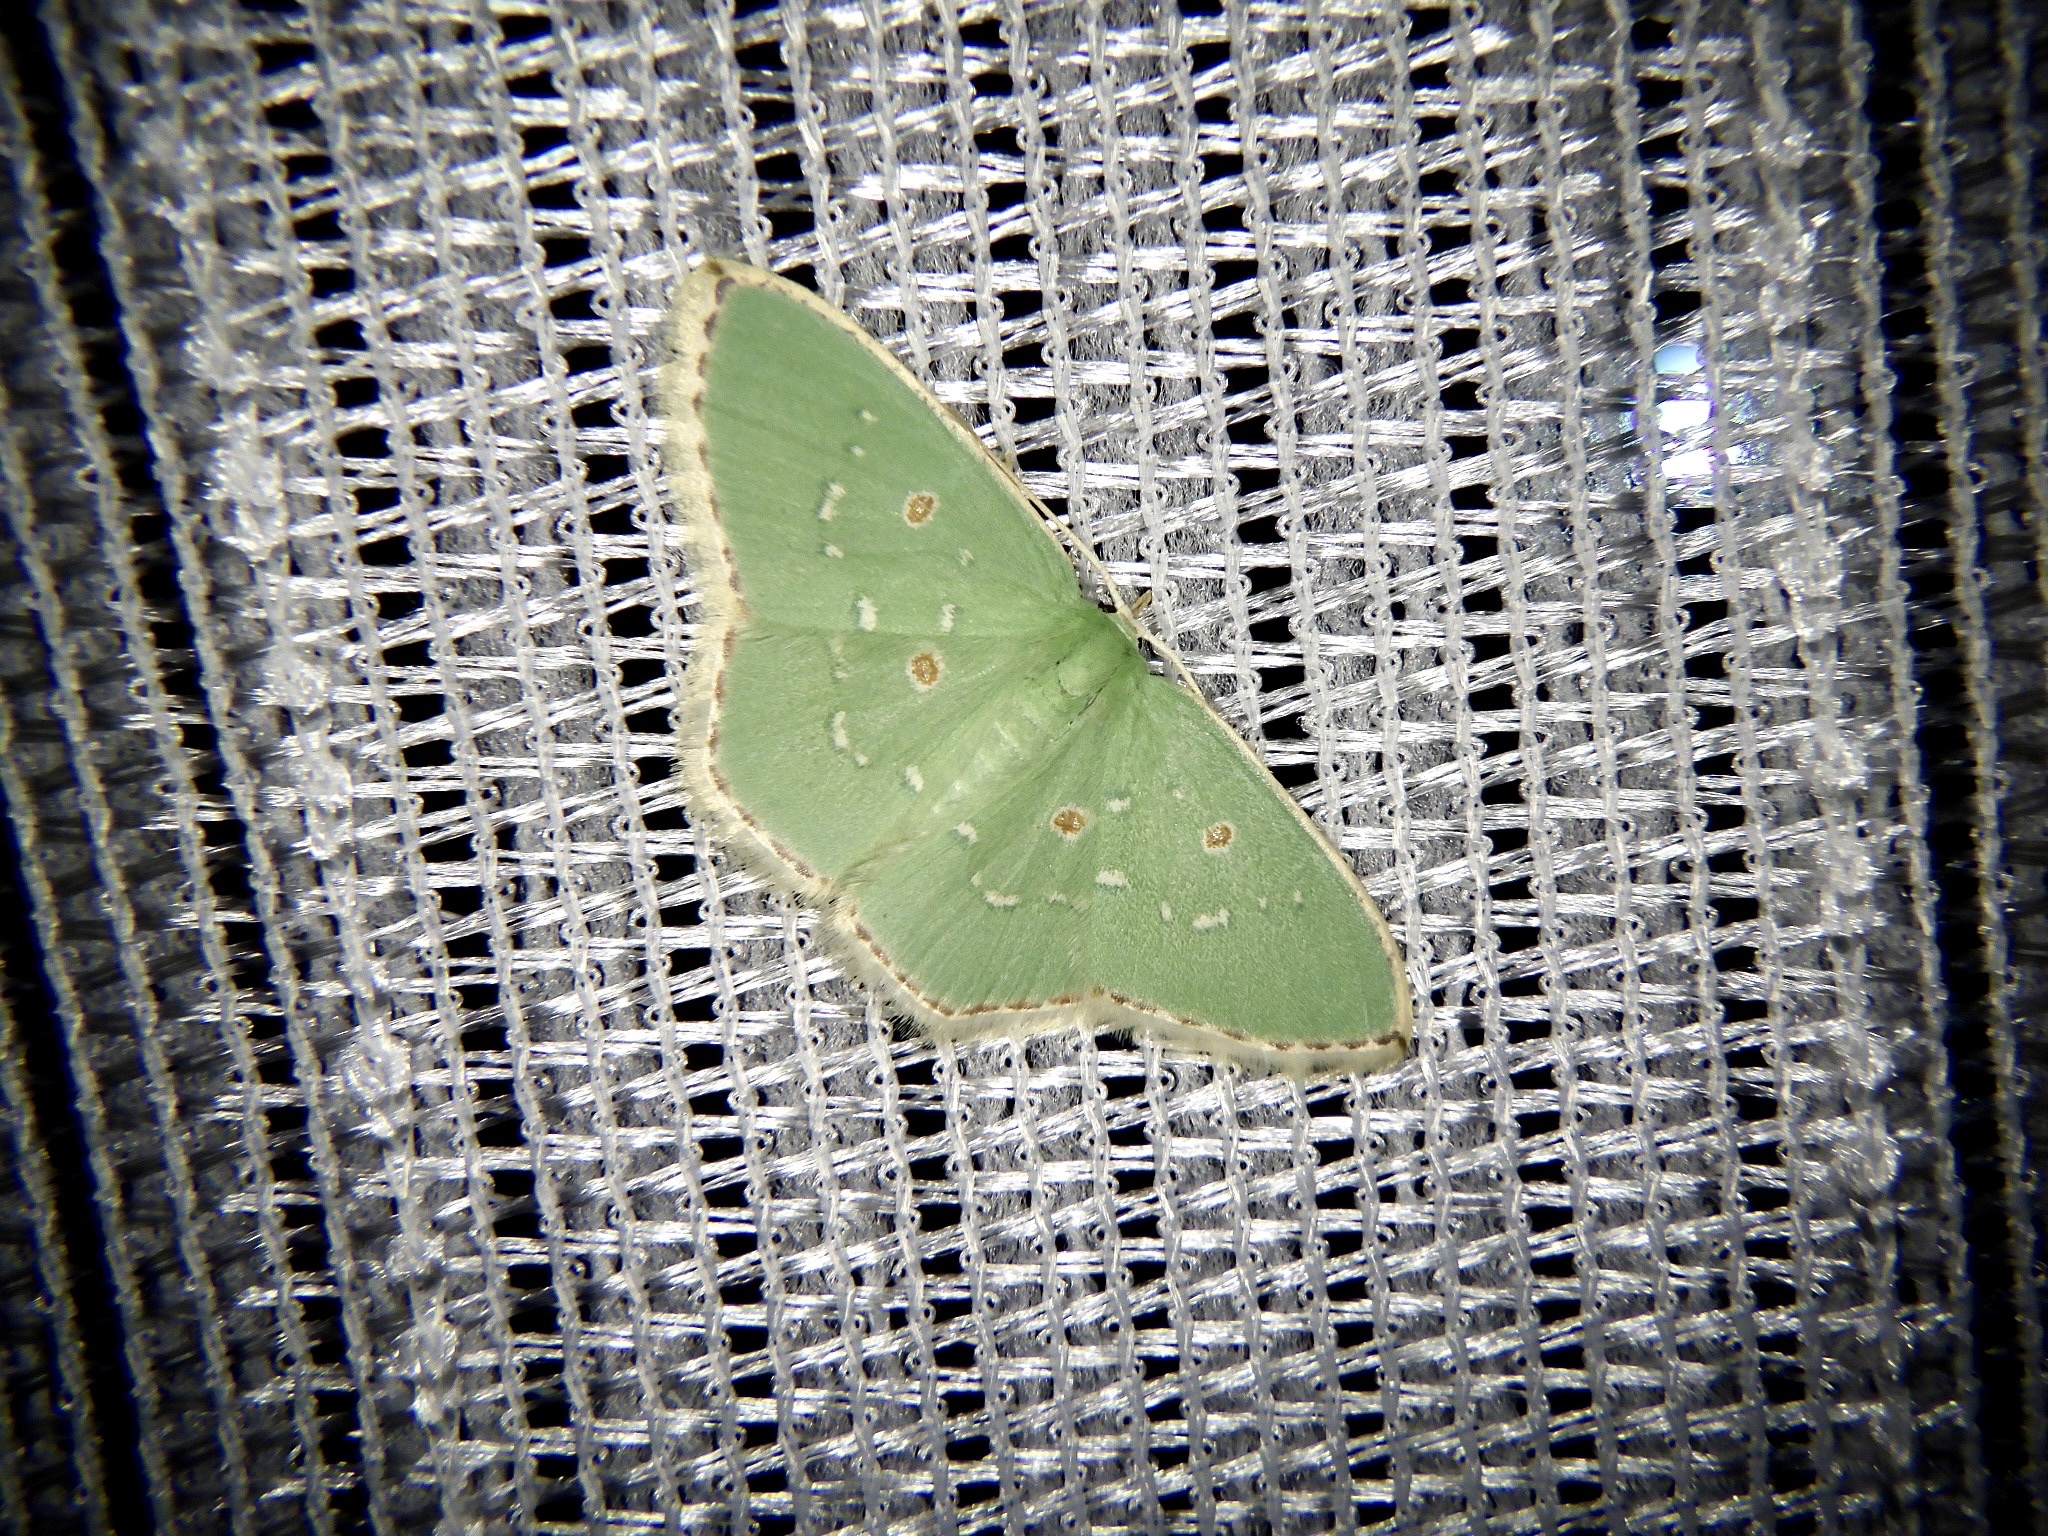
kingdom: Animalia
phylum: Arthropoda
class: Insecta
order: Lepidoptera
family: Geometridae
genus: Comostola
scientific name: Comostola subtiliaria
